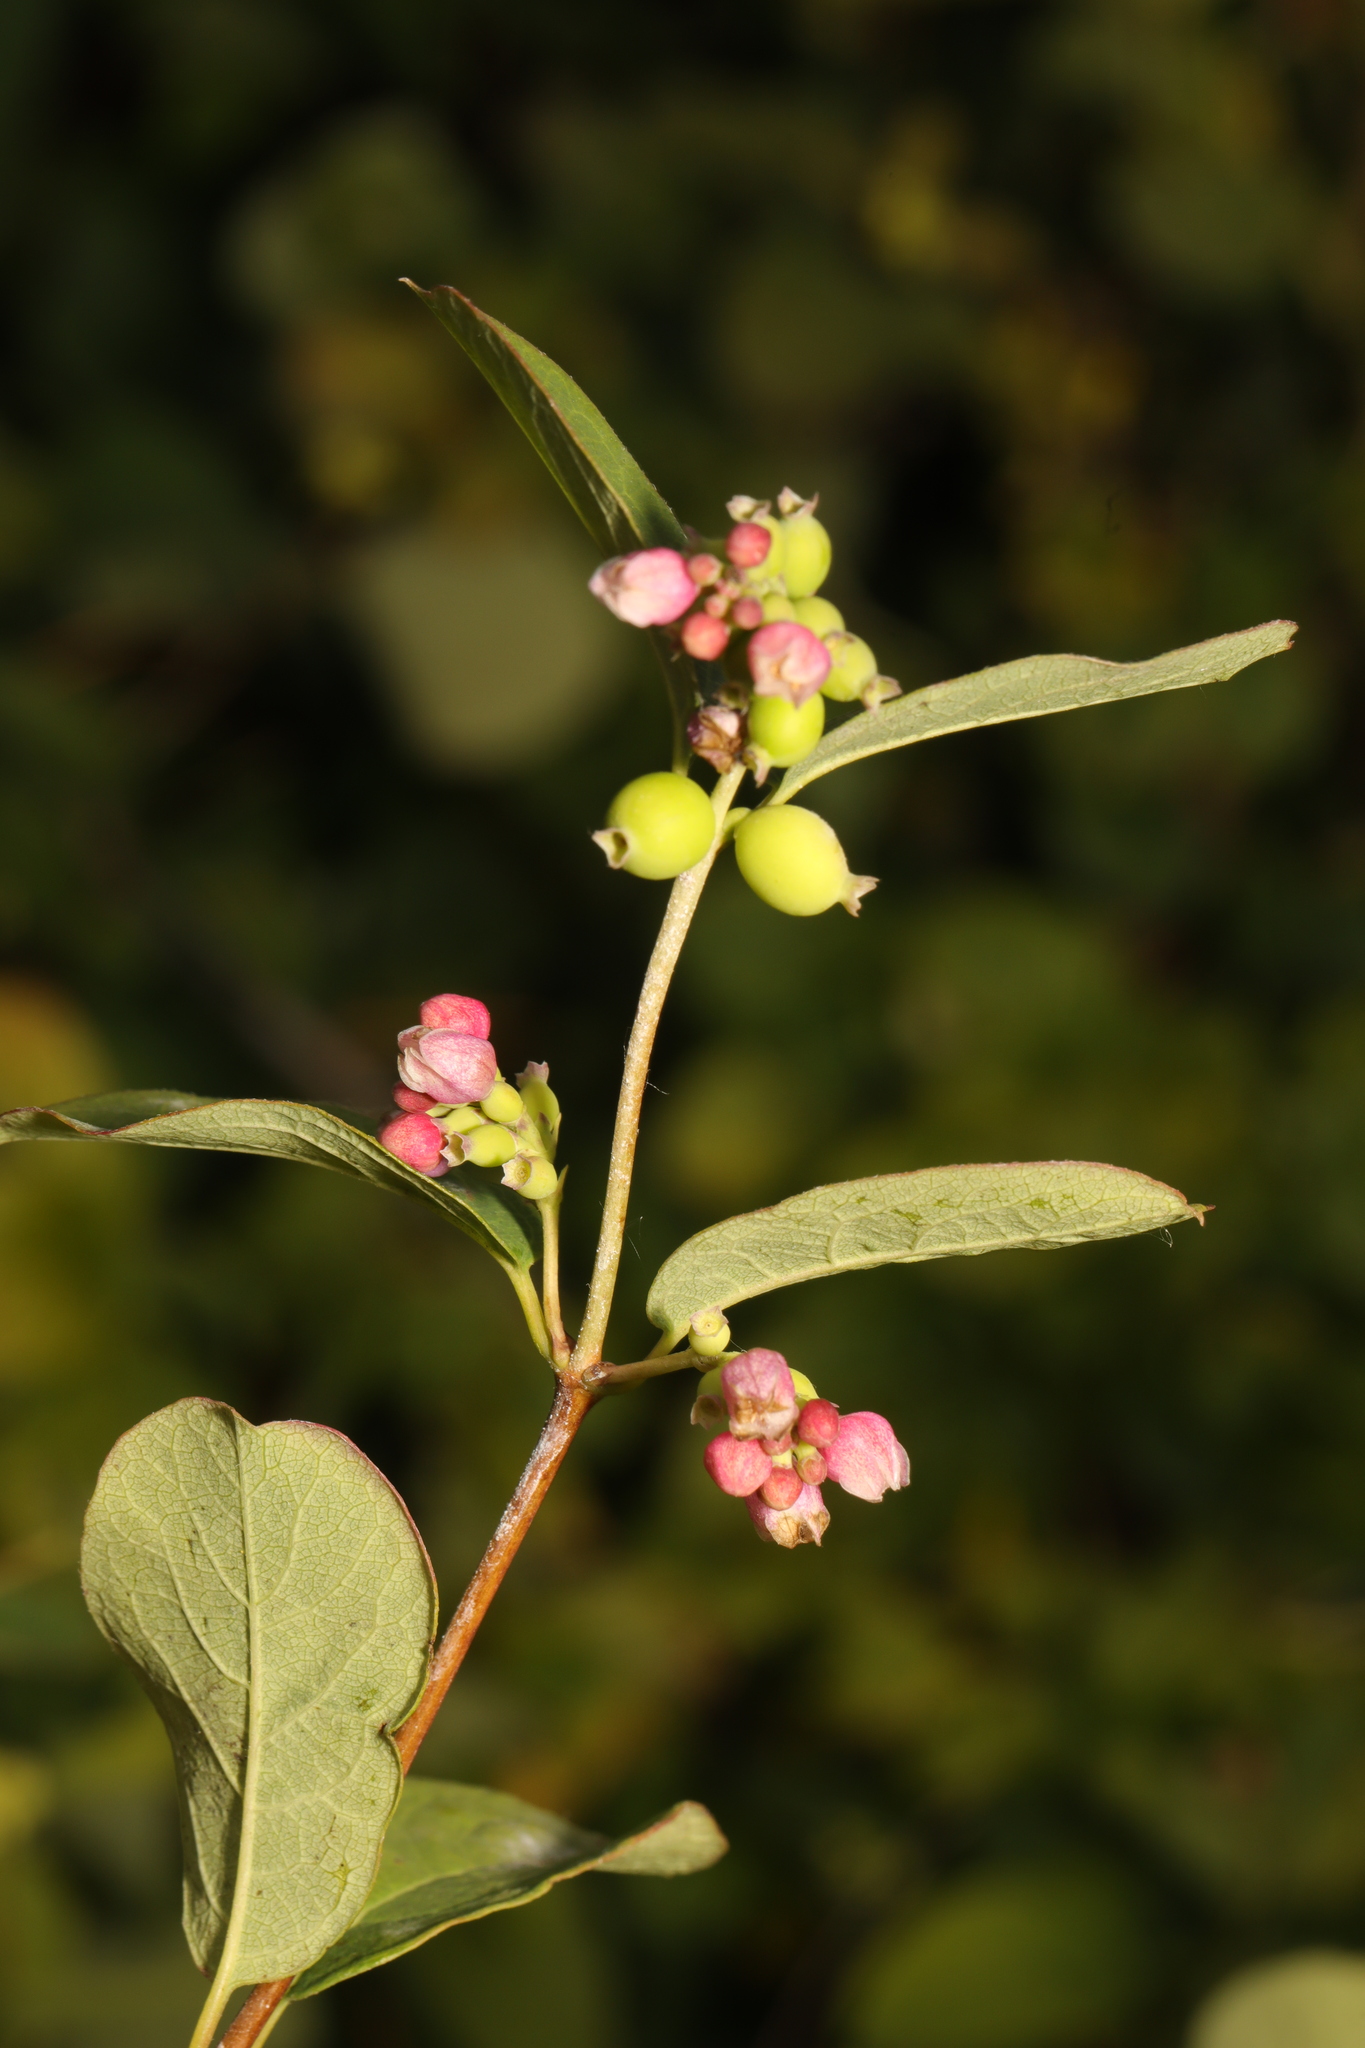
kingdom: Plantae
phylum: Tracheophyta
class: Magnoliopsida
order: Dipsacales
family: Caprifoliaceae
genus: Symphoricarpos
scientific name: Symphoricarpos albus
